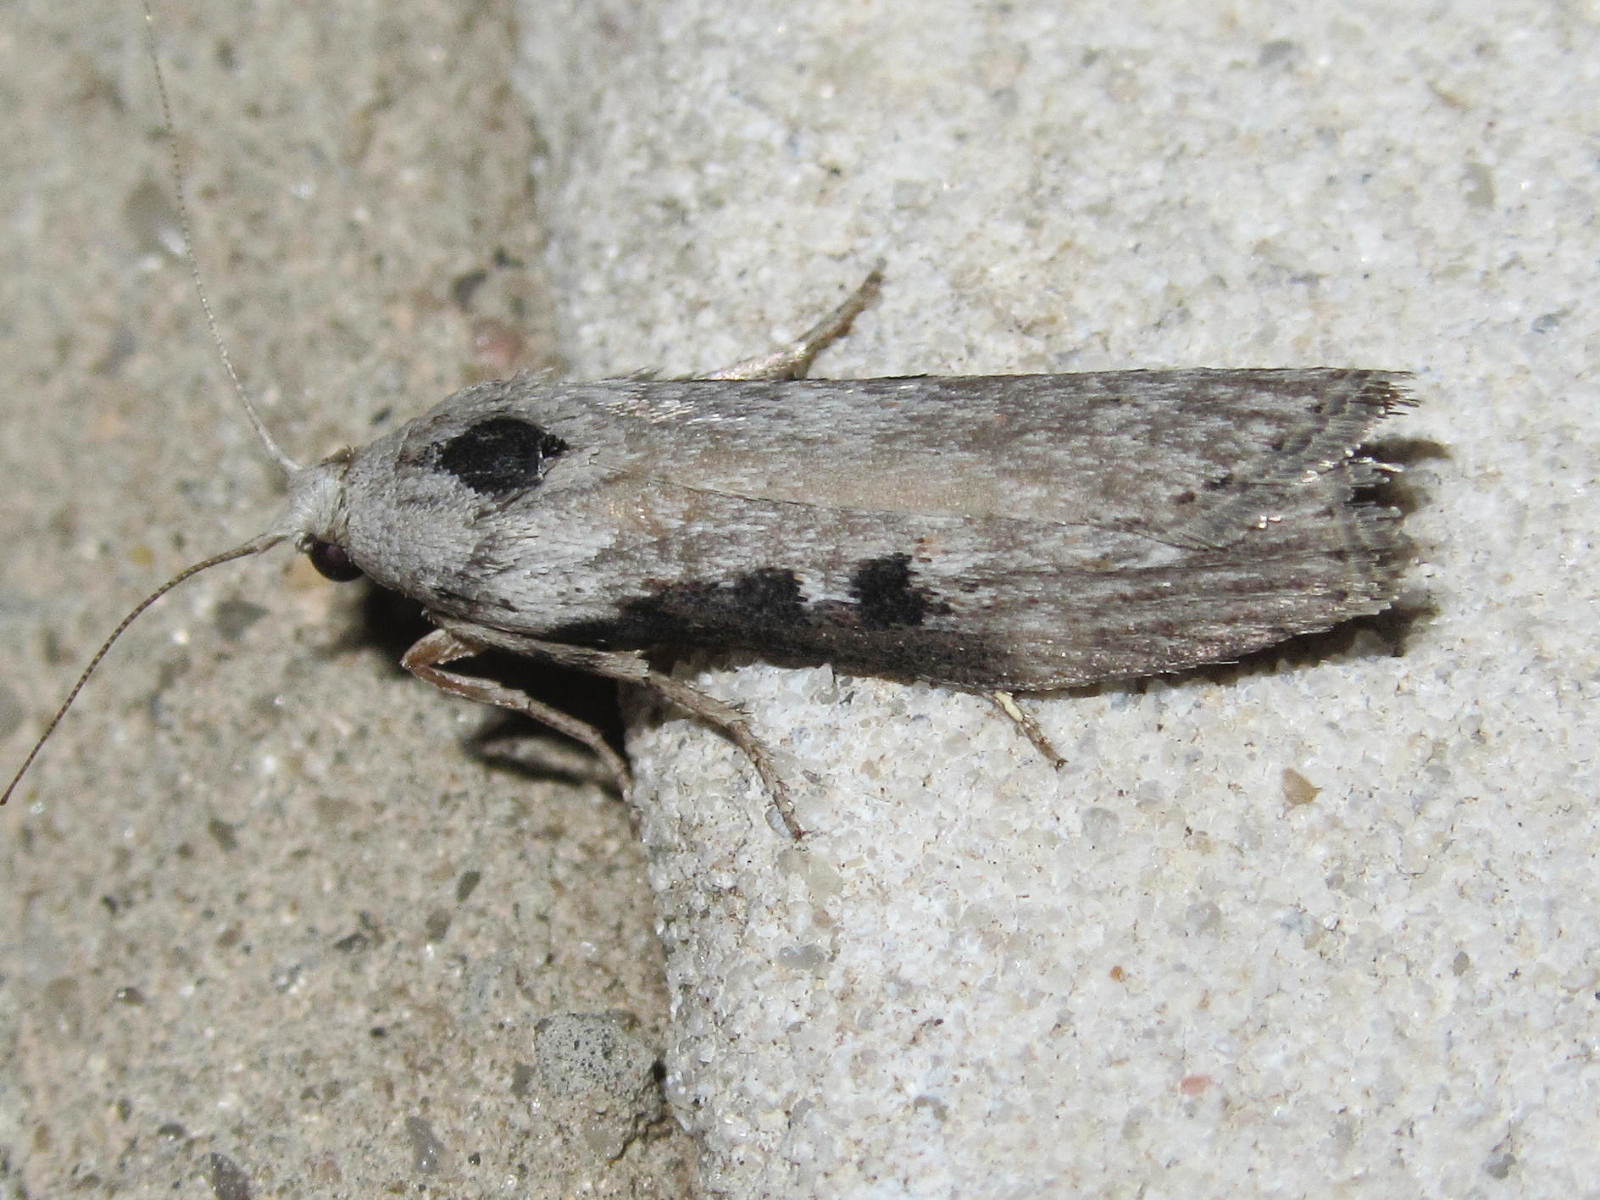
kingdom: Animalia
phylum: Arthropoda
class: Insecta
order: Lepidoptera
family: Pyralidae
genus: Lamoria
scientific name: Lamoria anella
